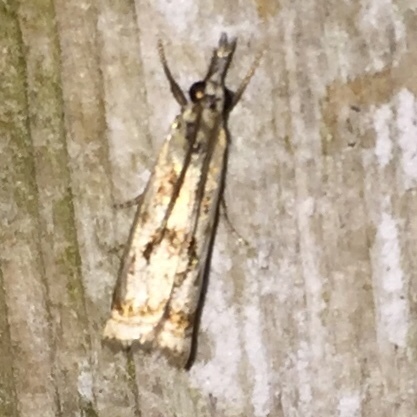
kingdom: Animalia
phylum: Arthropoda
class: Insecta
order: Lepidoptera
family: Crambidae
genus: Microcrambus
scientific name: Microcrambus elegans
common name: Elegant grass-veneer
